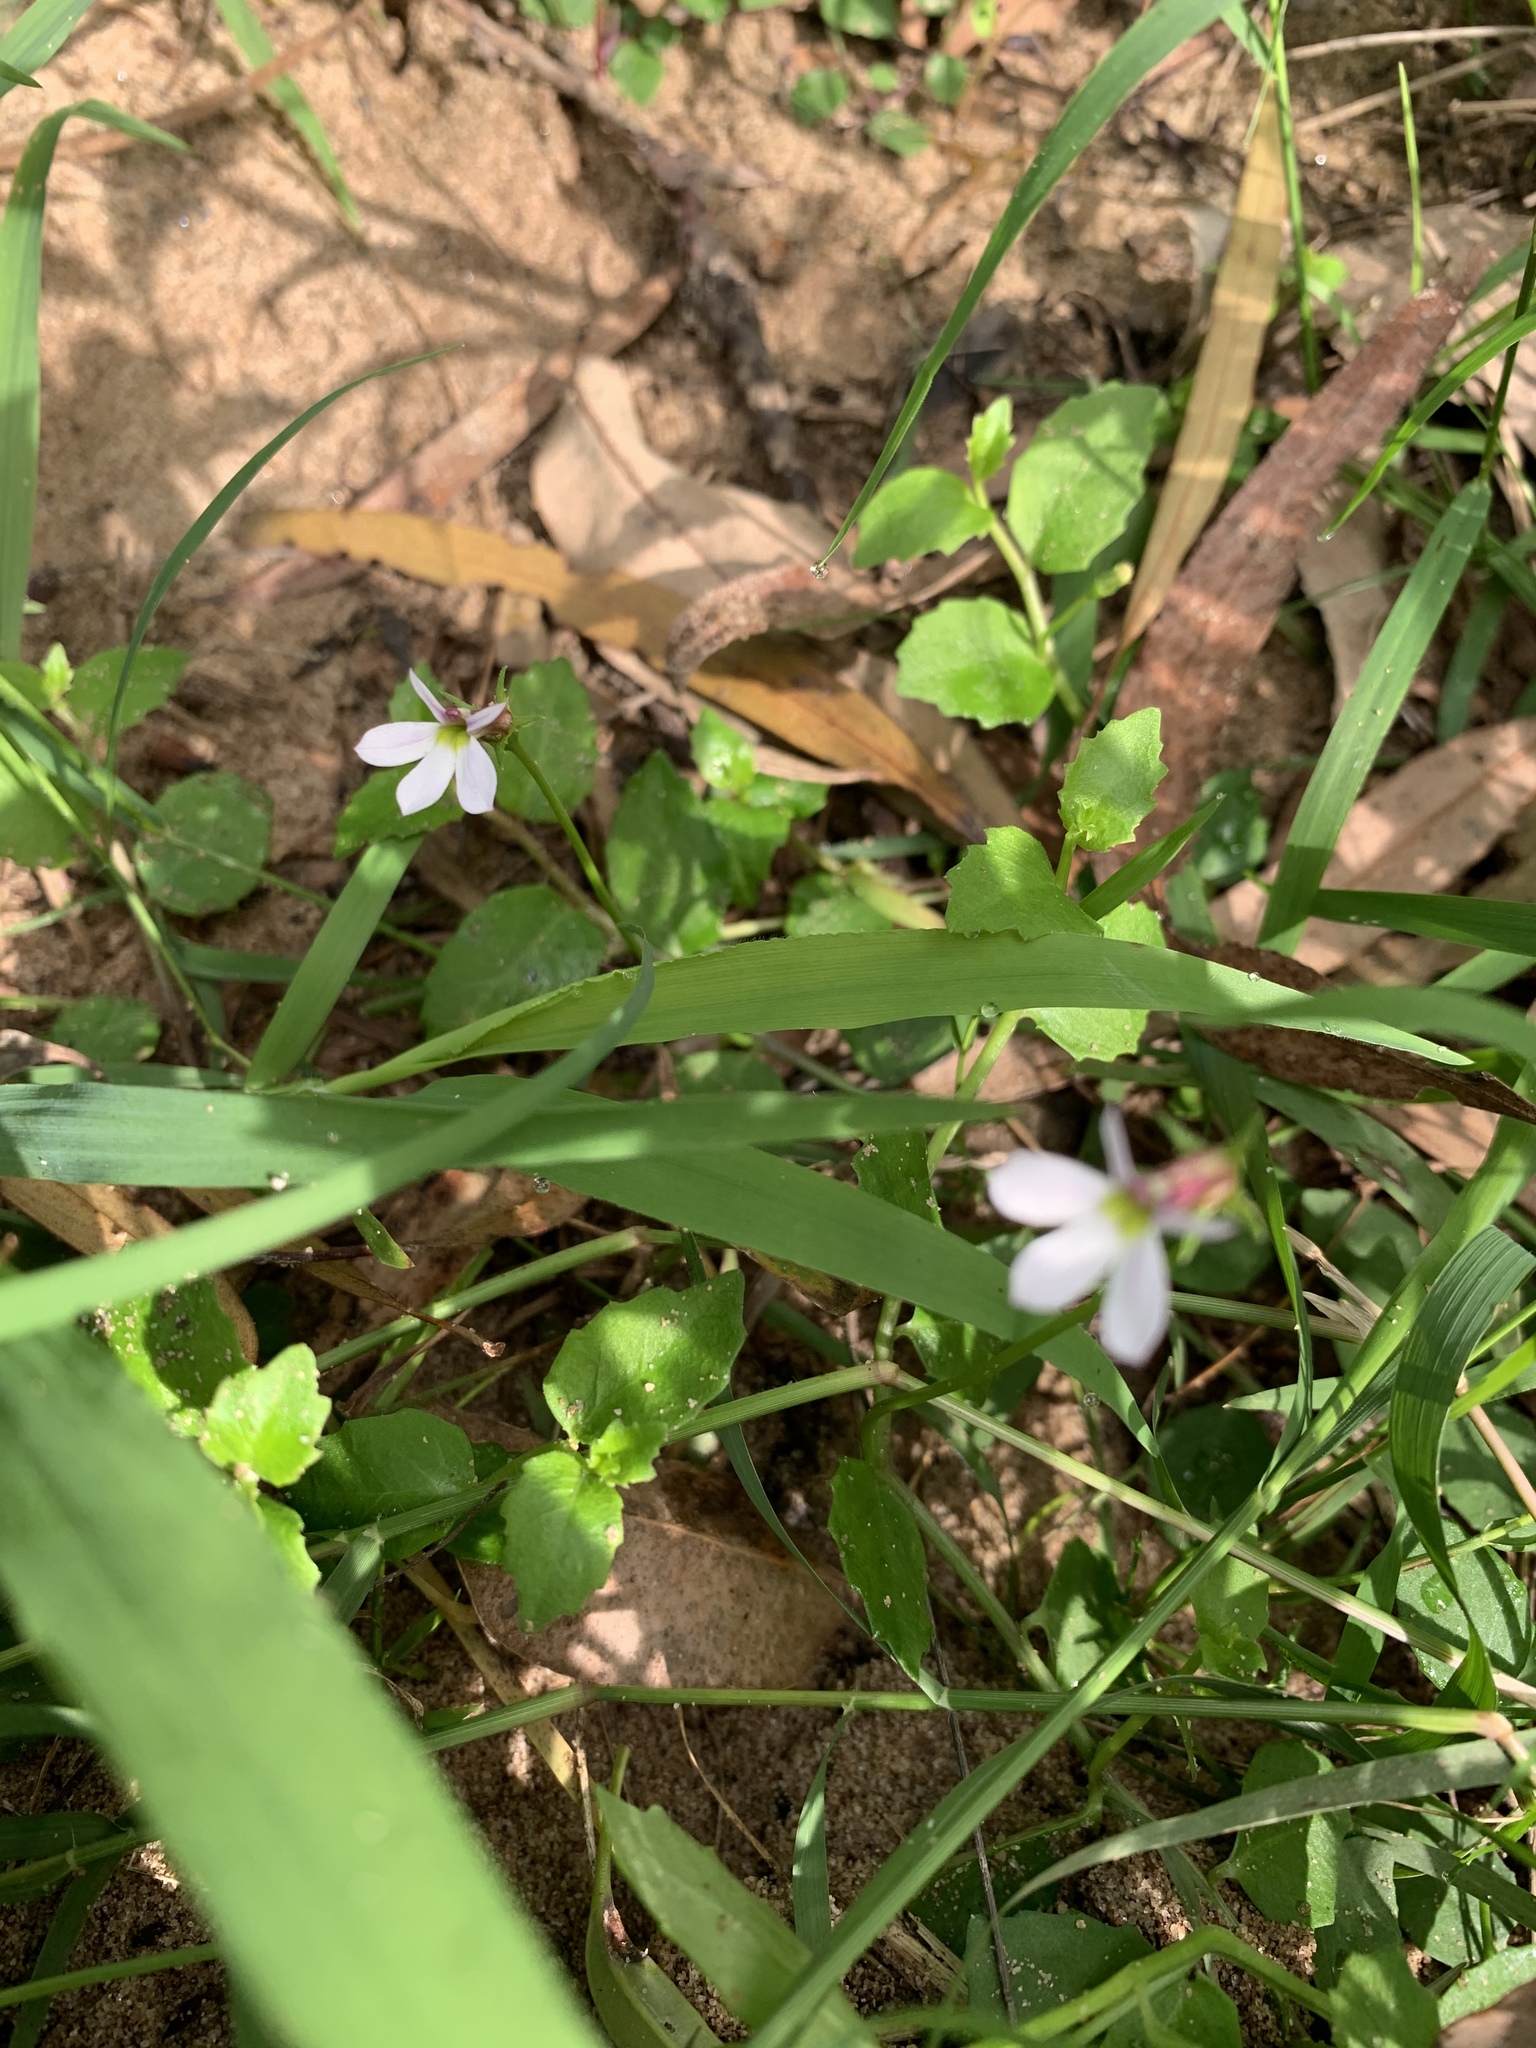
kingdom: Plantae
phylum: Tracheophyta
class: Magnoliopsida
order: Asterales
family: Campanulaceae
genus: Lobelia
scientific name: Lobelia purpurascens
